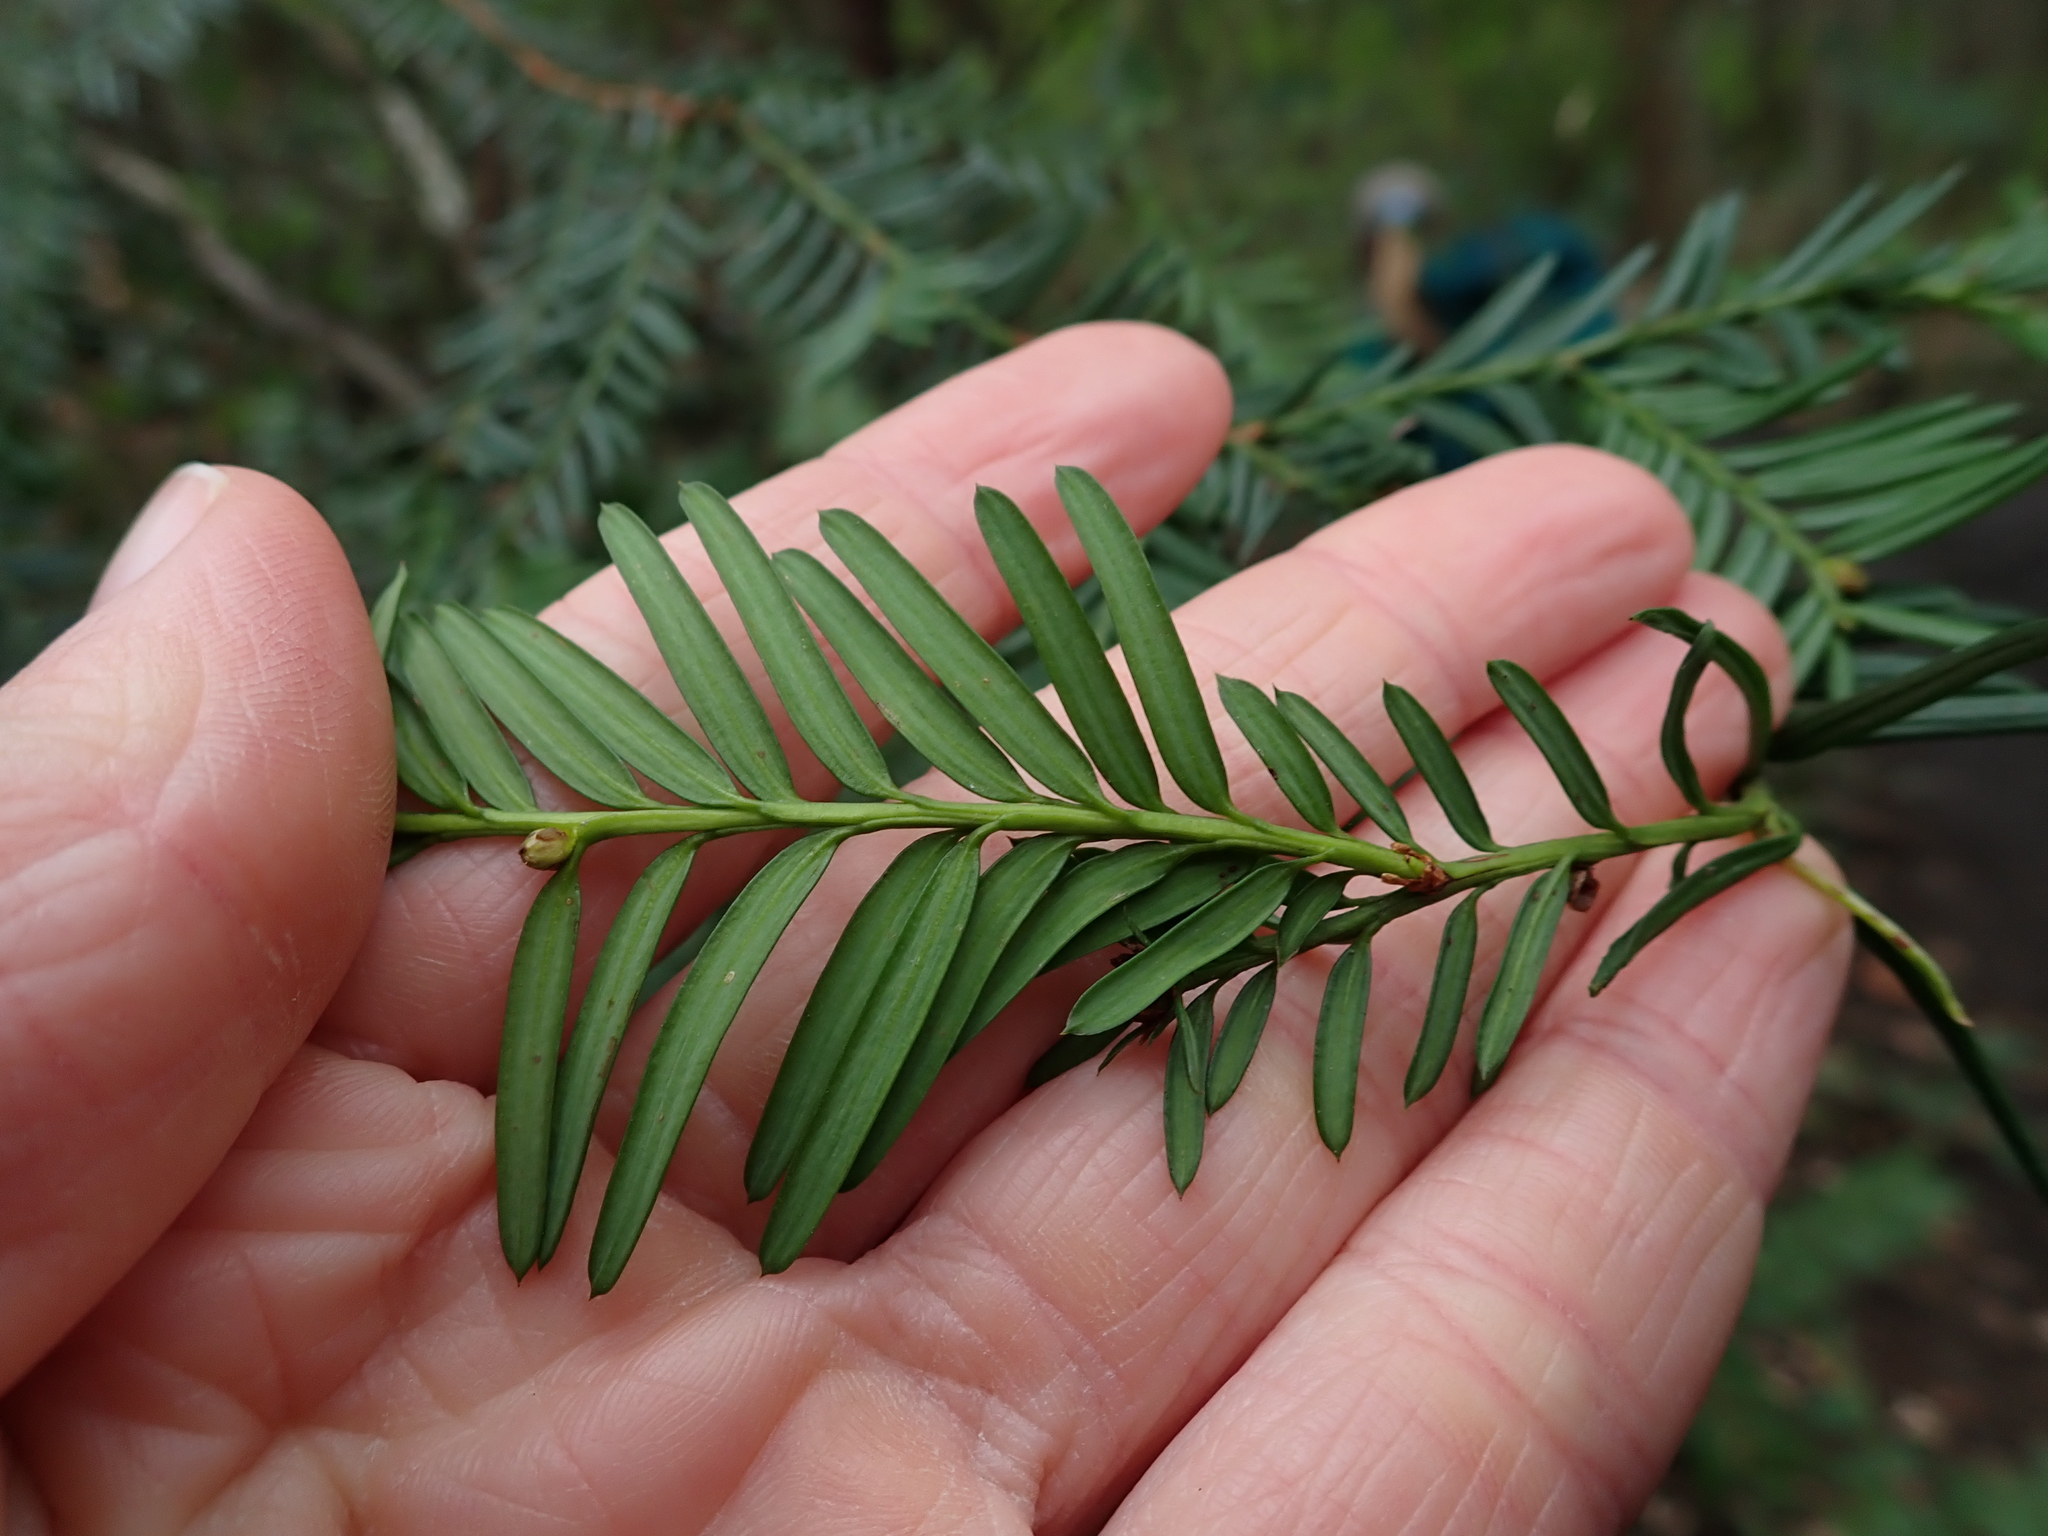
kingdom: Plantae
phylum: Tracheophyta
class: Pinopsida
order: Pinales
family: Taxaceae
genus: Taxus
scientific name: Taxus brevifolia
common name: Pacific yew
